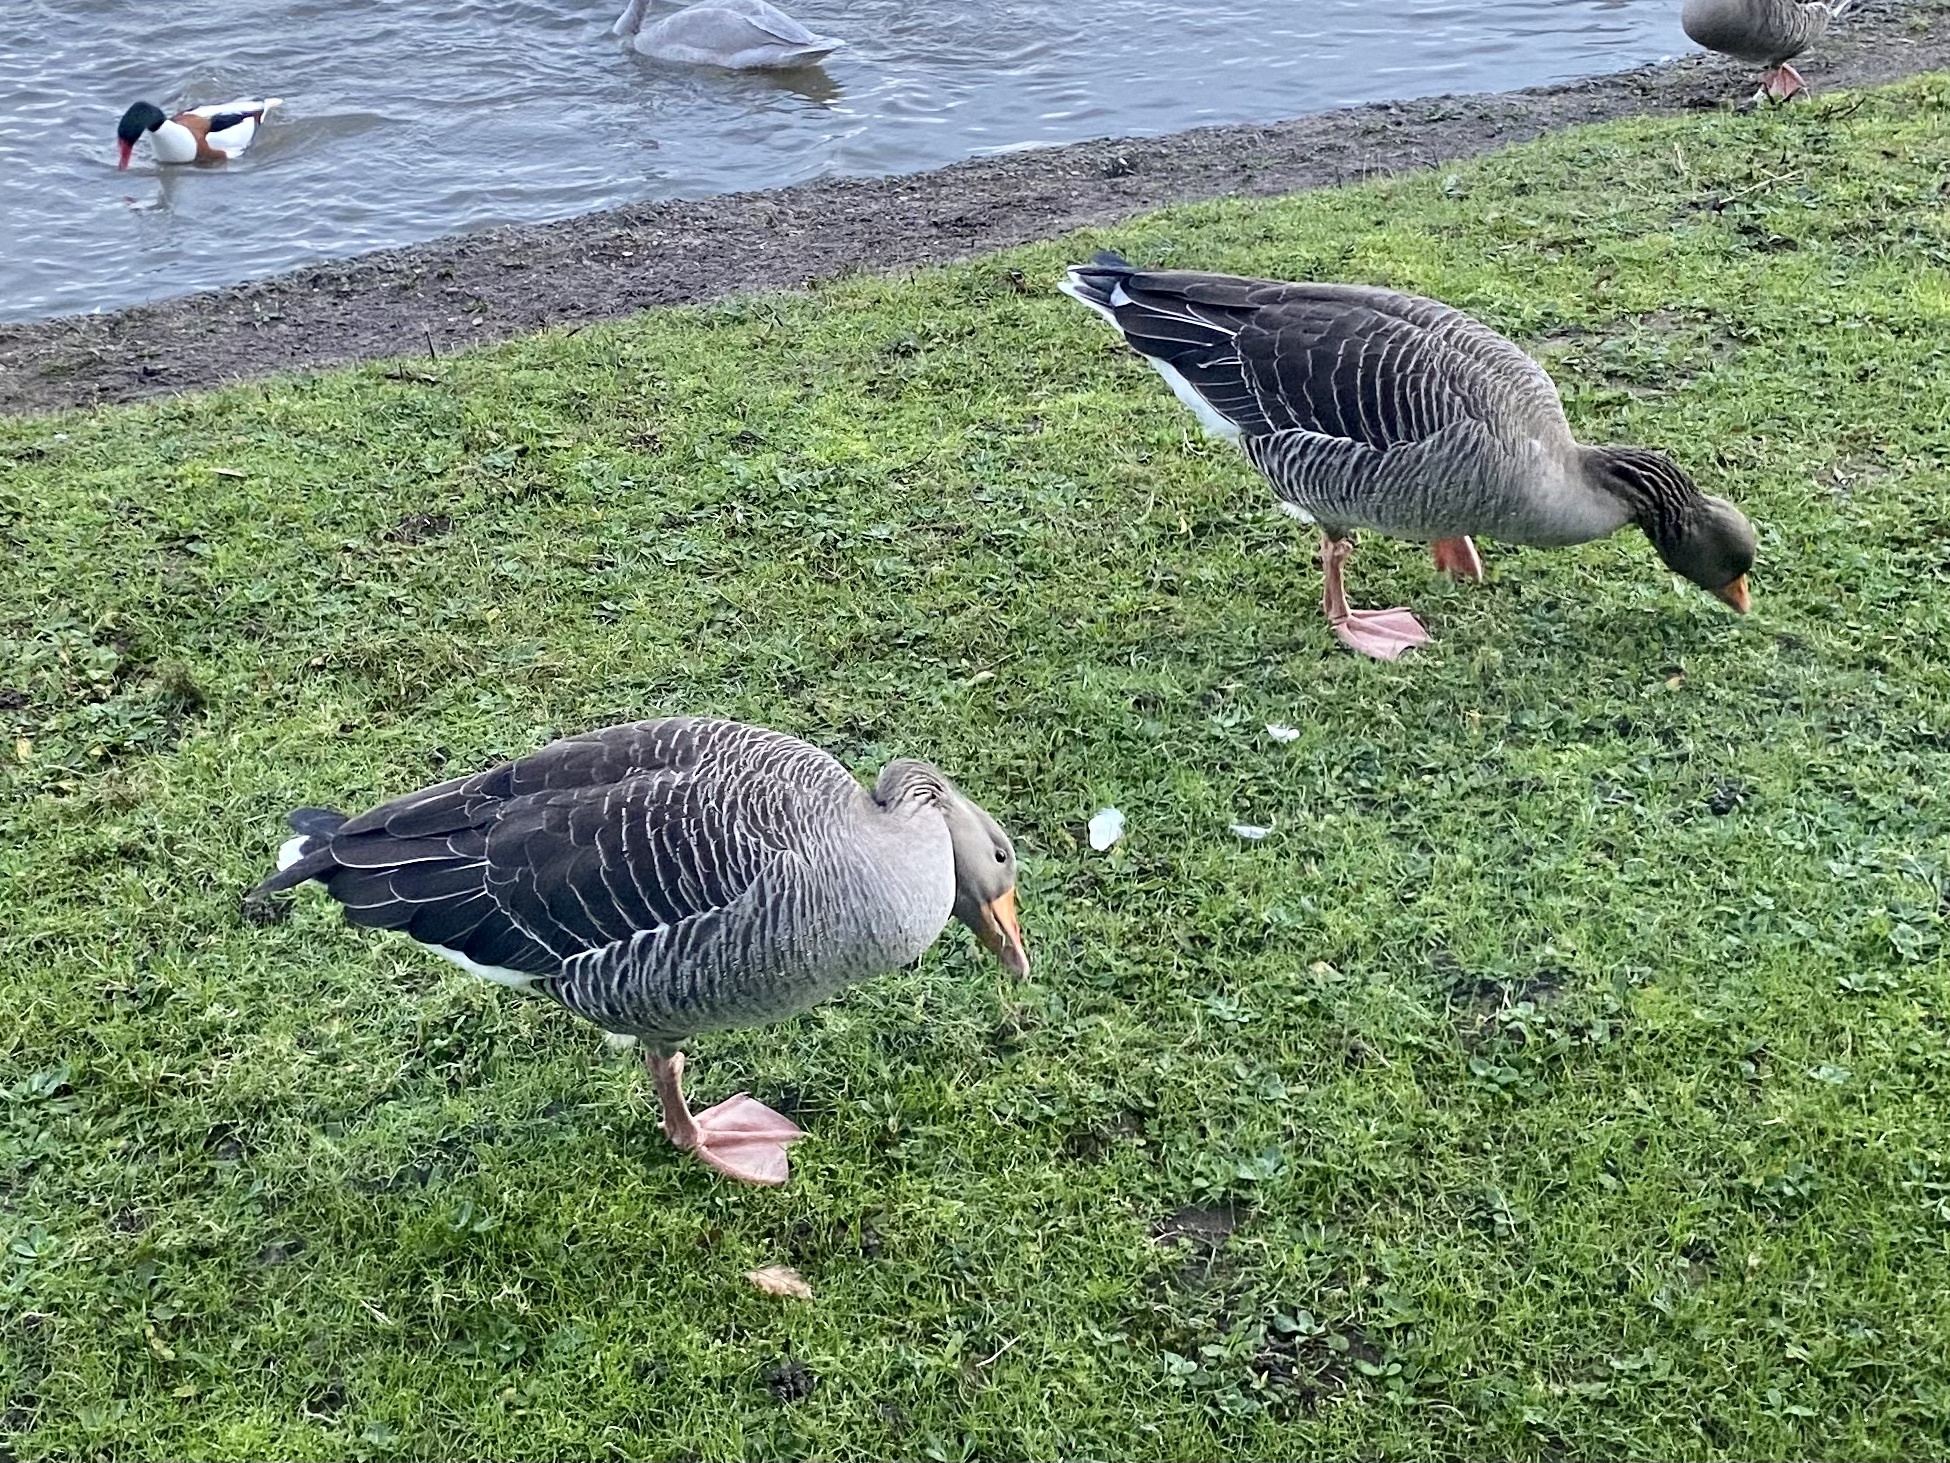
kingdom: Animalia
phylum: Chordata
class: Aves
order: Anseriformes
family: Anatidae
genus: Anser
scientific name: Anser anser
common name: Greylag goose
